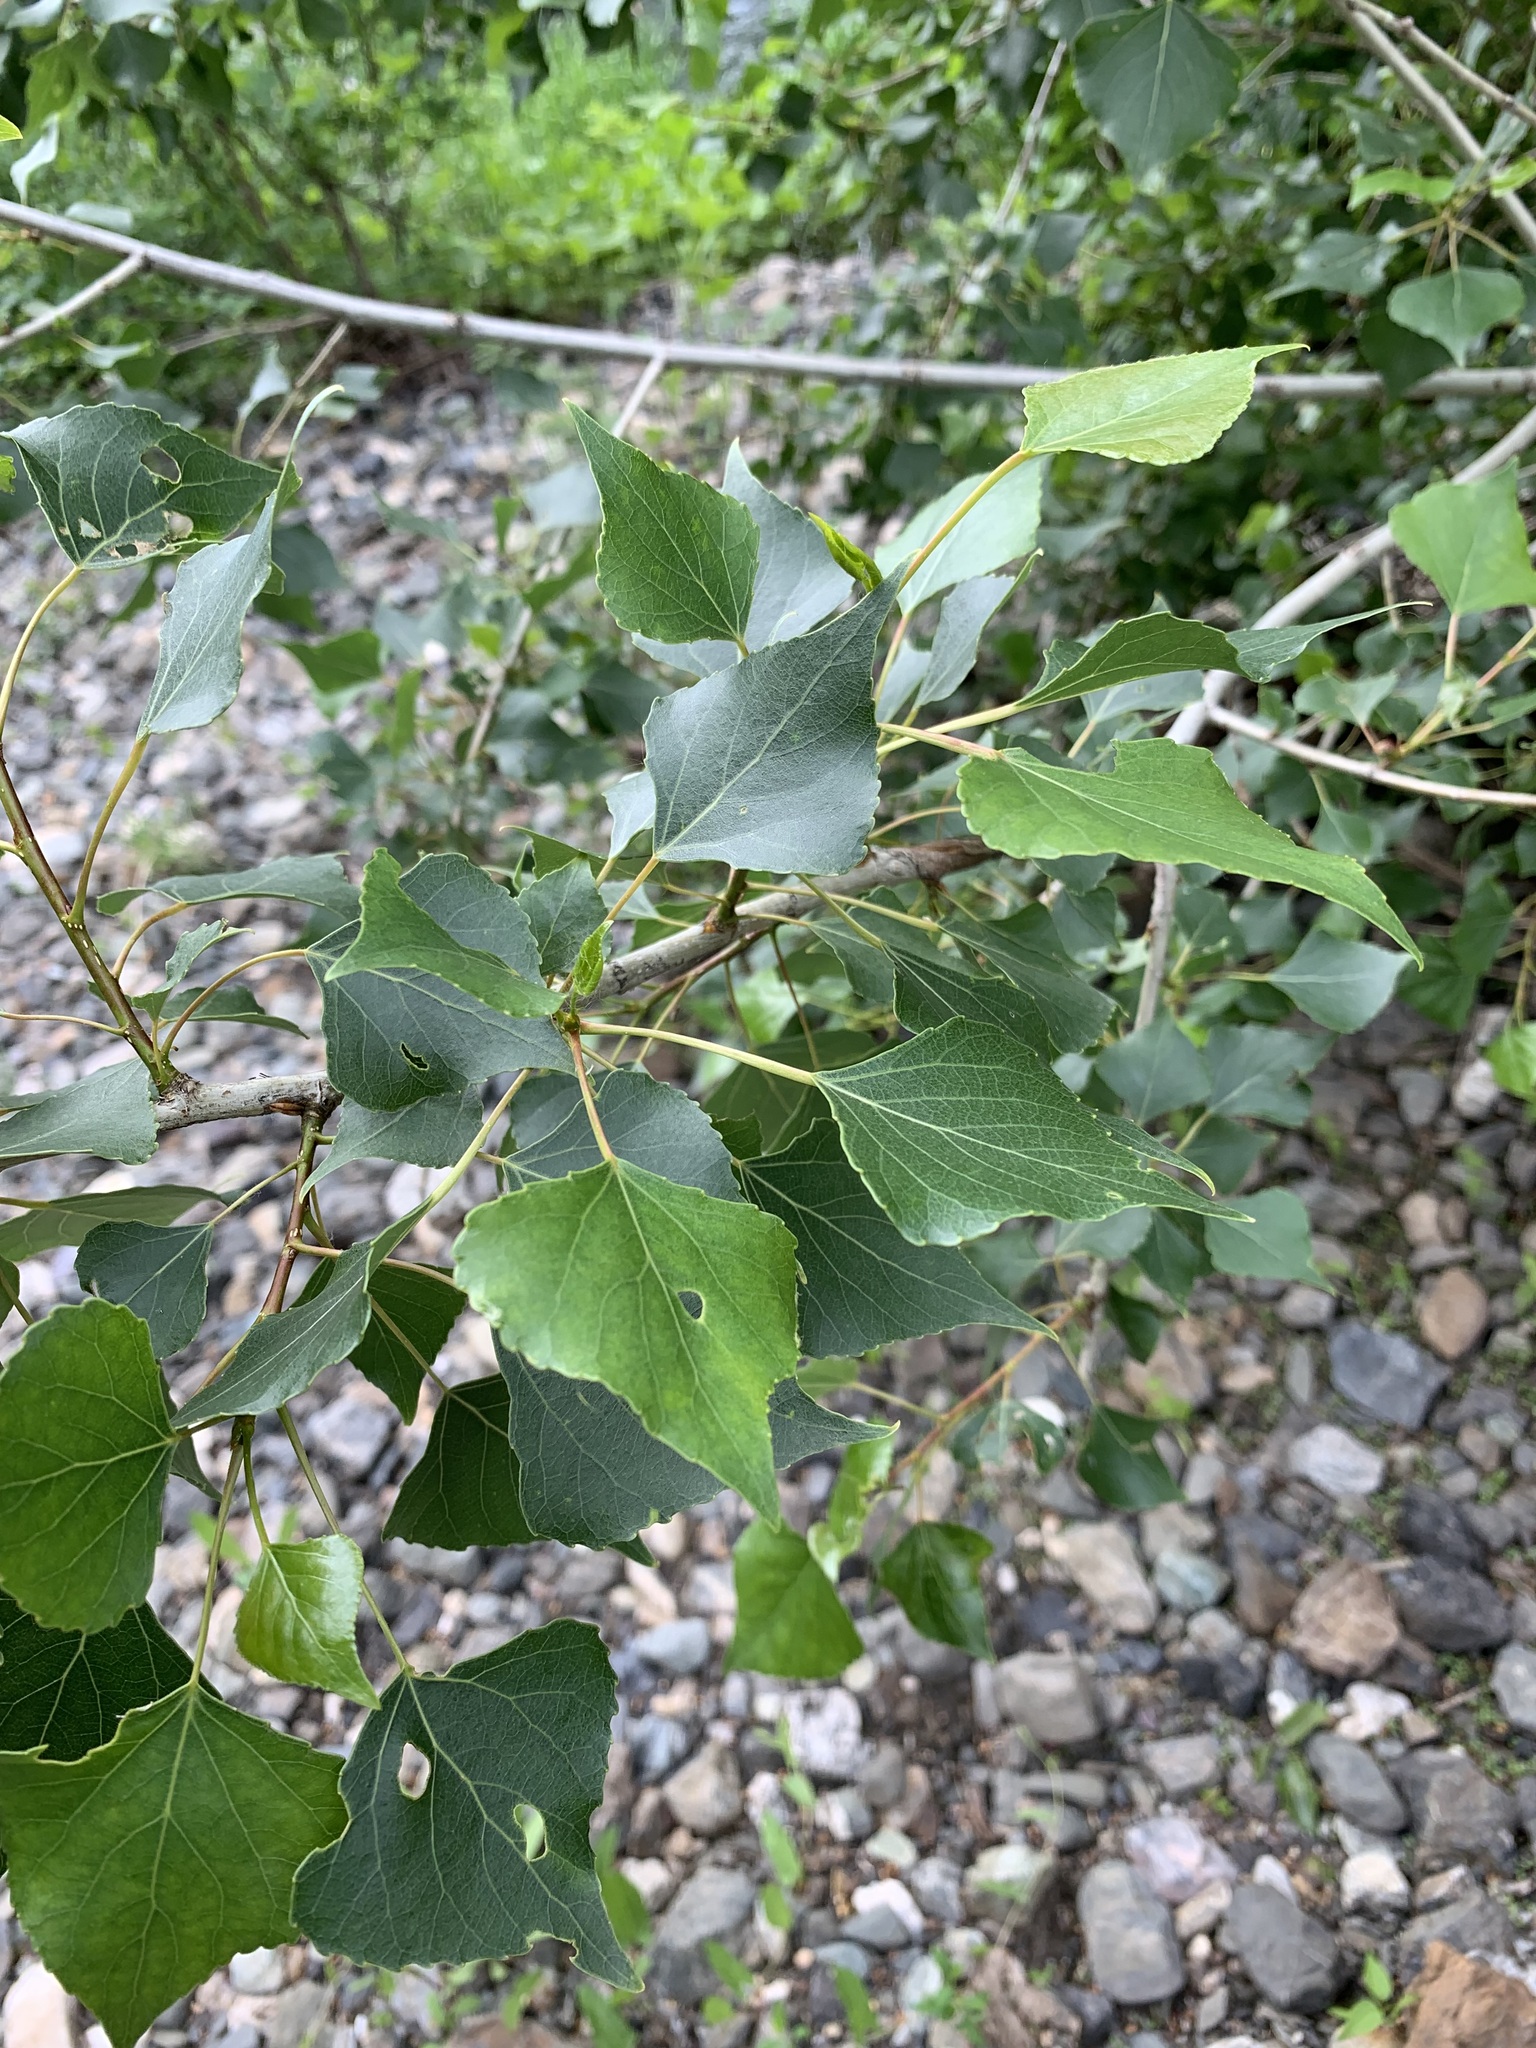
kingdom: Plantae
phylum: Tracheophyta
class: Magnoliopsida
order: Malpighiales
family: Salicaceae
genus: Populus
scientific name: Populus nigra
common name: Black poplar
